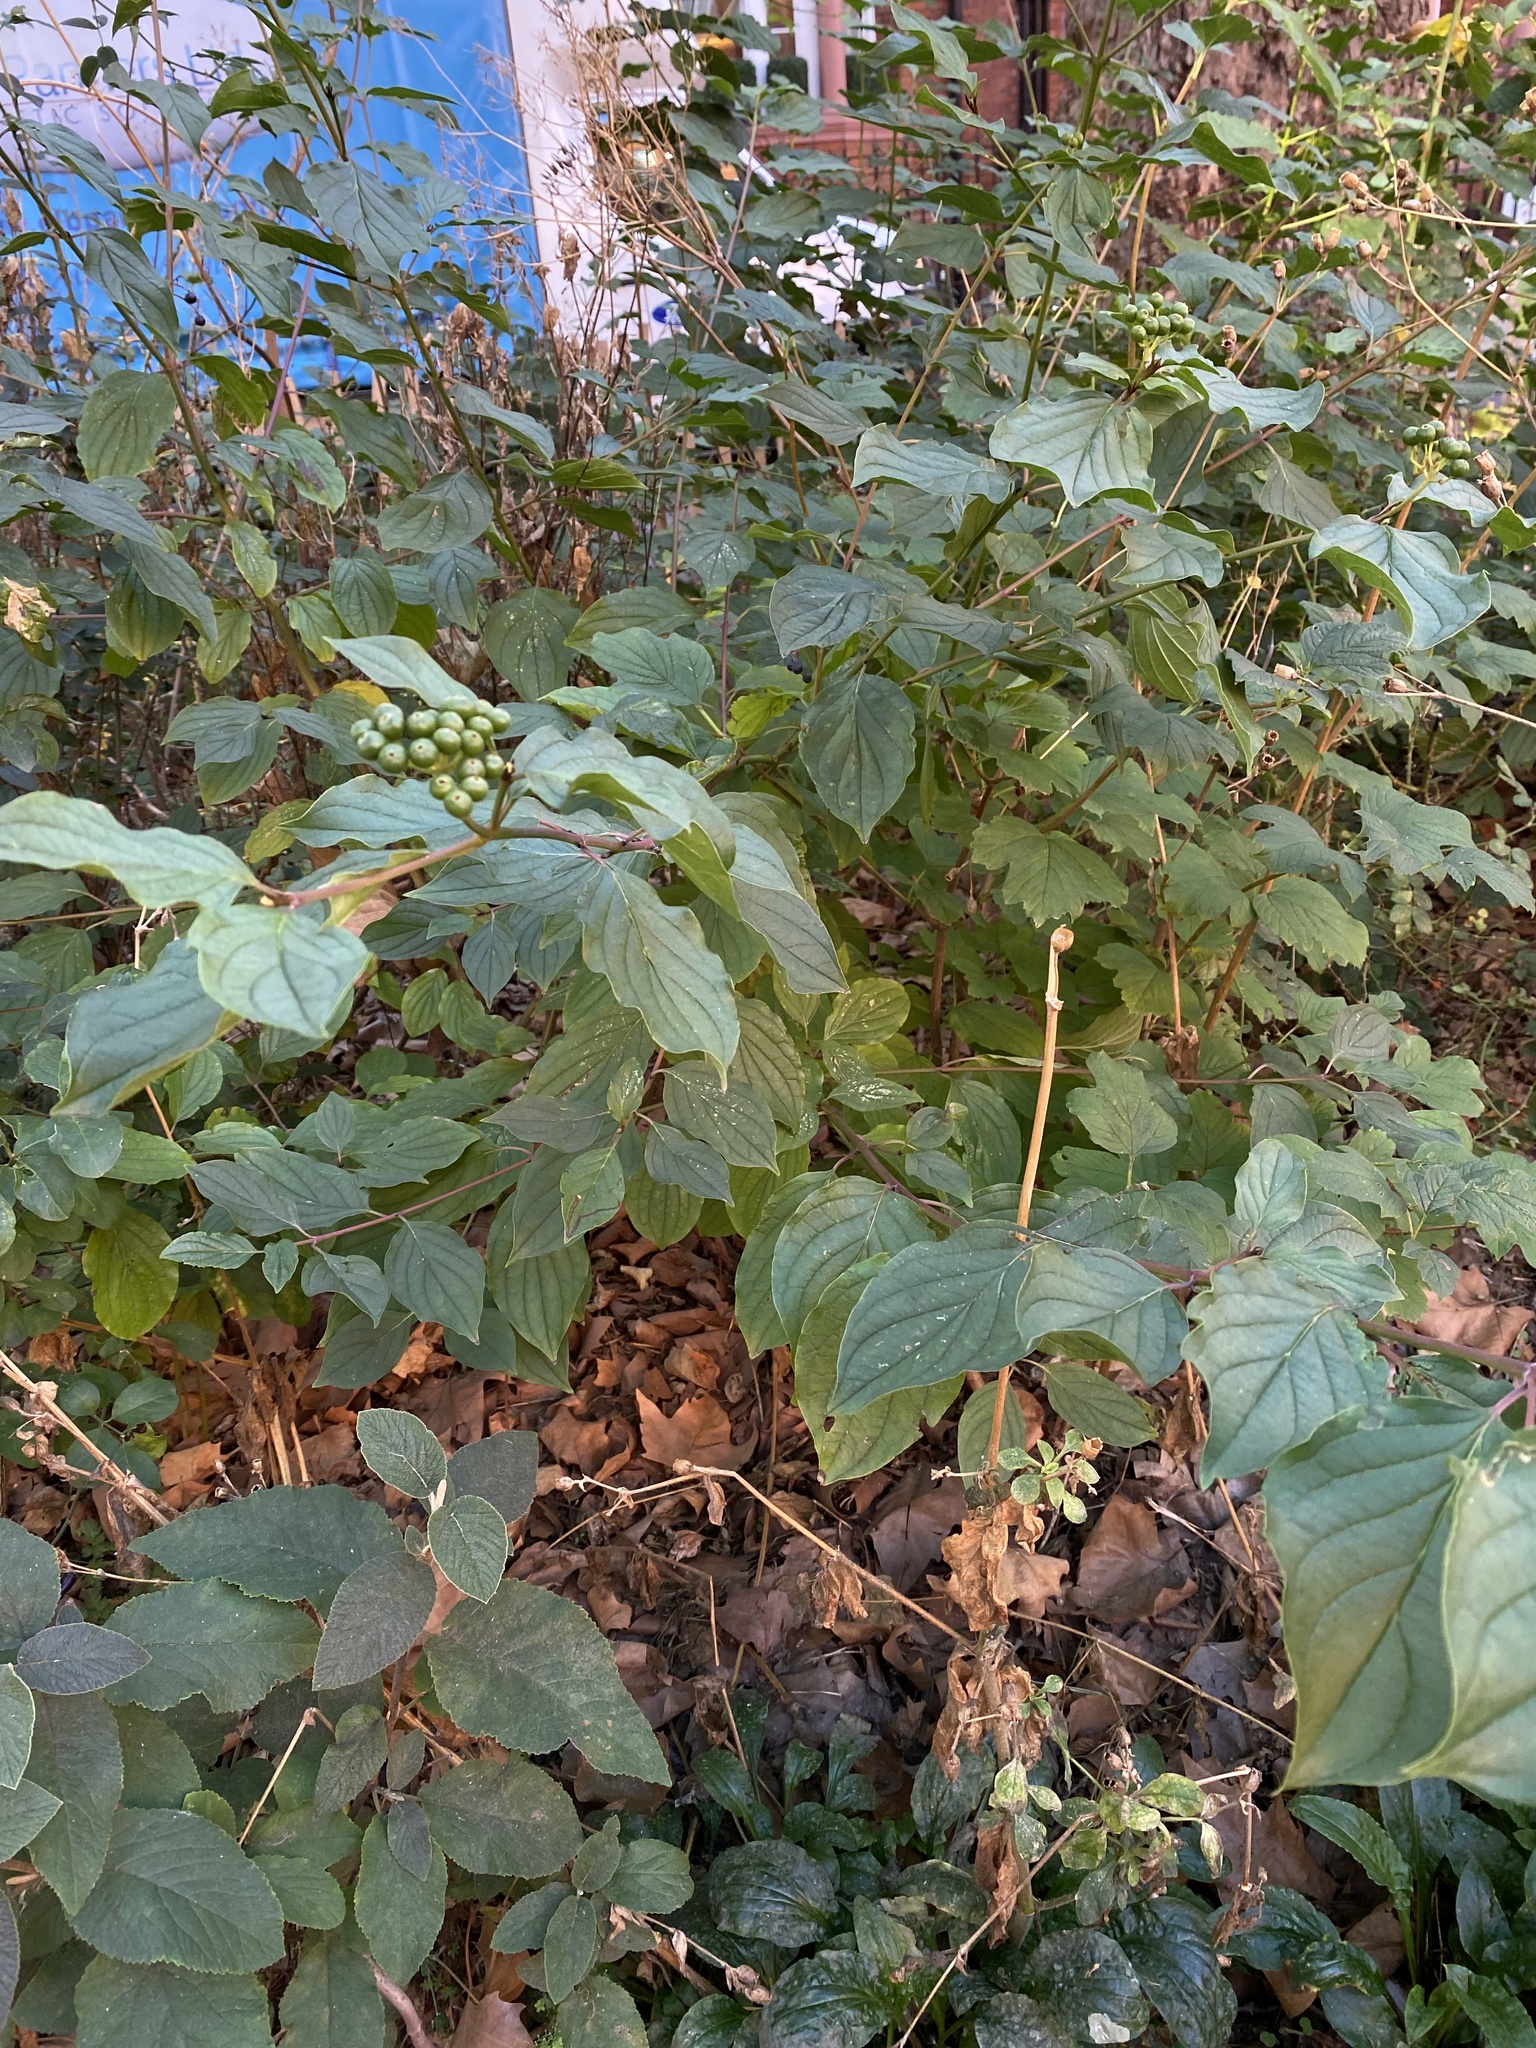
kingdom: Plantae
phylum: Tracheophyta
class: Magnoliopsida
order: Cornales
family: Cornaceae
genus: Cornus
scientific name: Cornus sanguinea
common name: Dogwood
